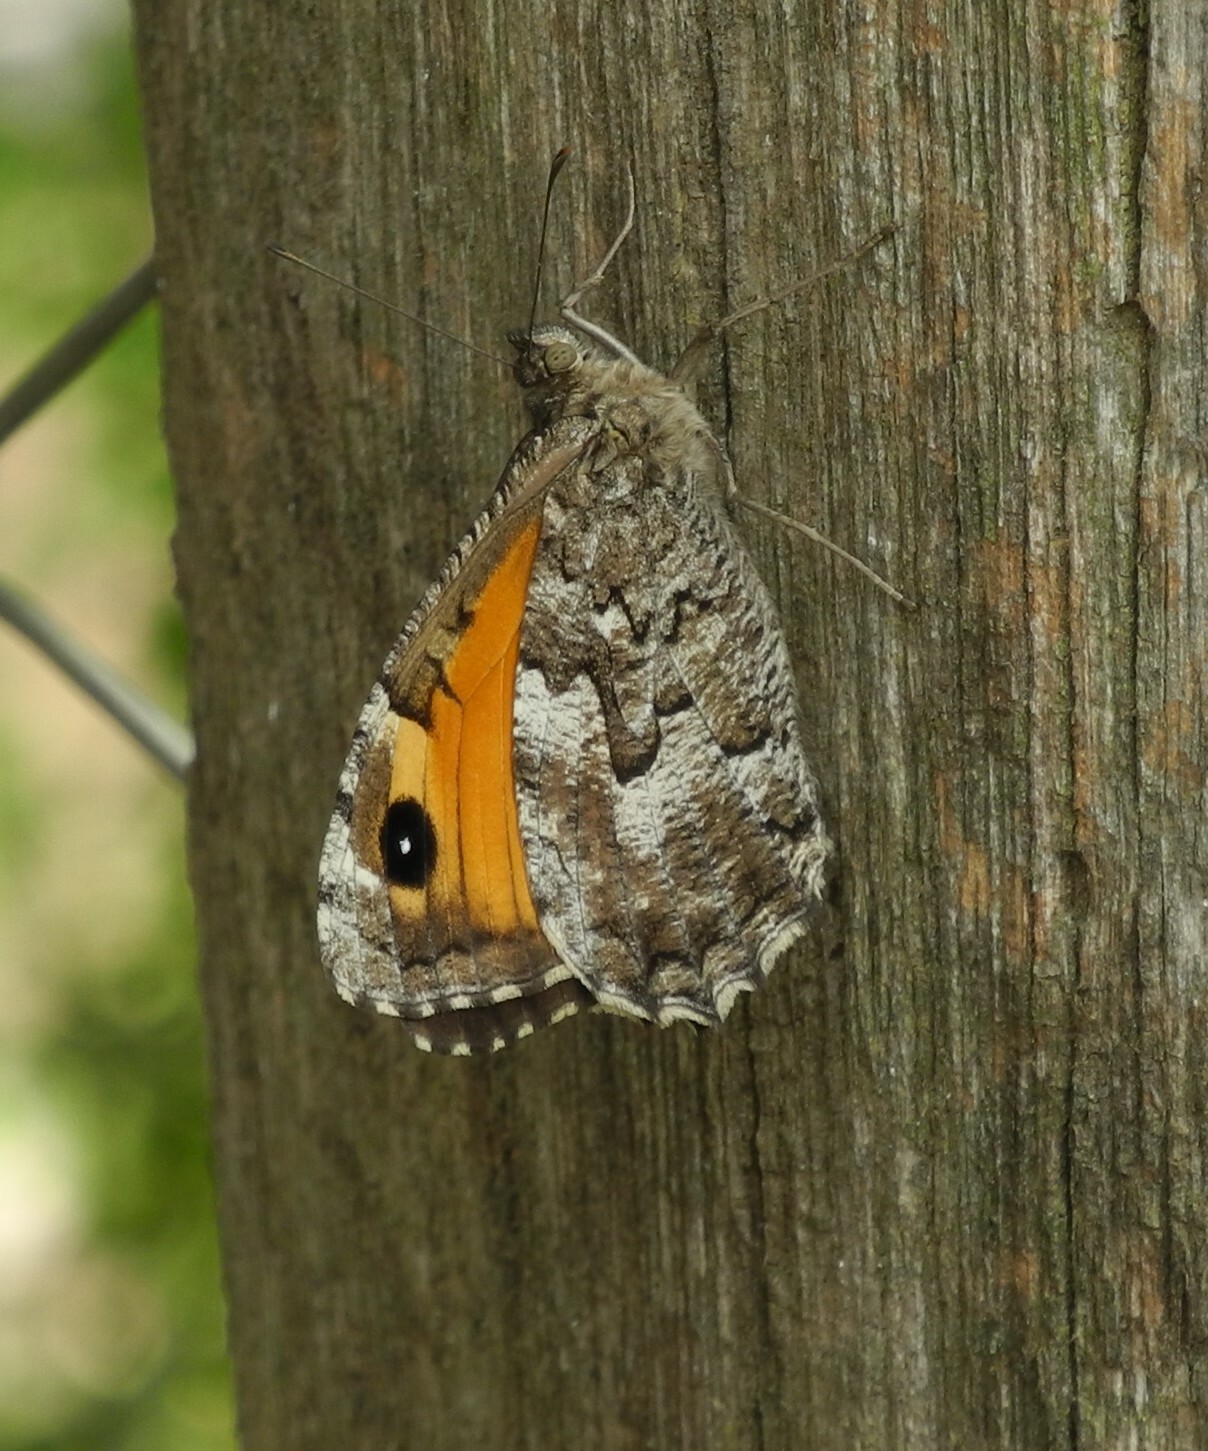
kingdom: Animalia
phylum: Arthropoda
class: Insecta
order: Lepidoptera
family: Nymphalidae
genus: Hipparchia
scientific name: Hipparchia algirica
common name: Mountain grayling
